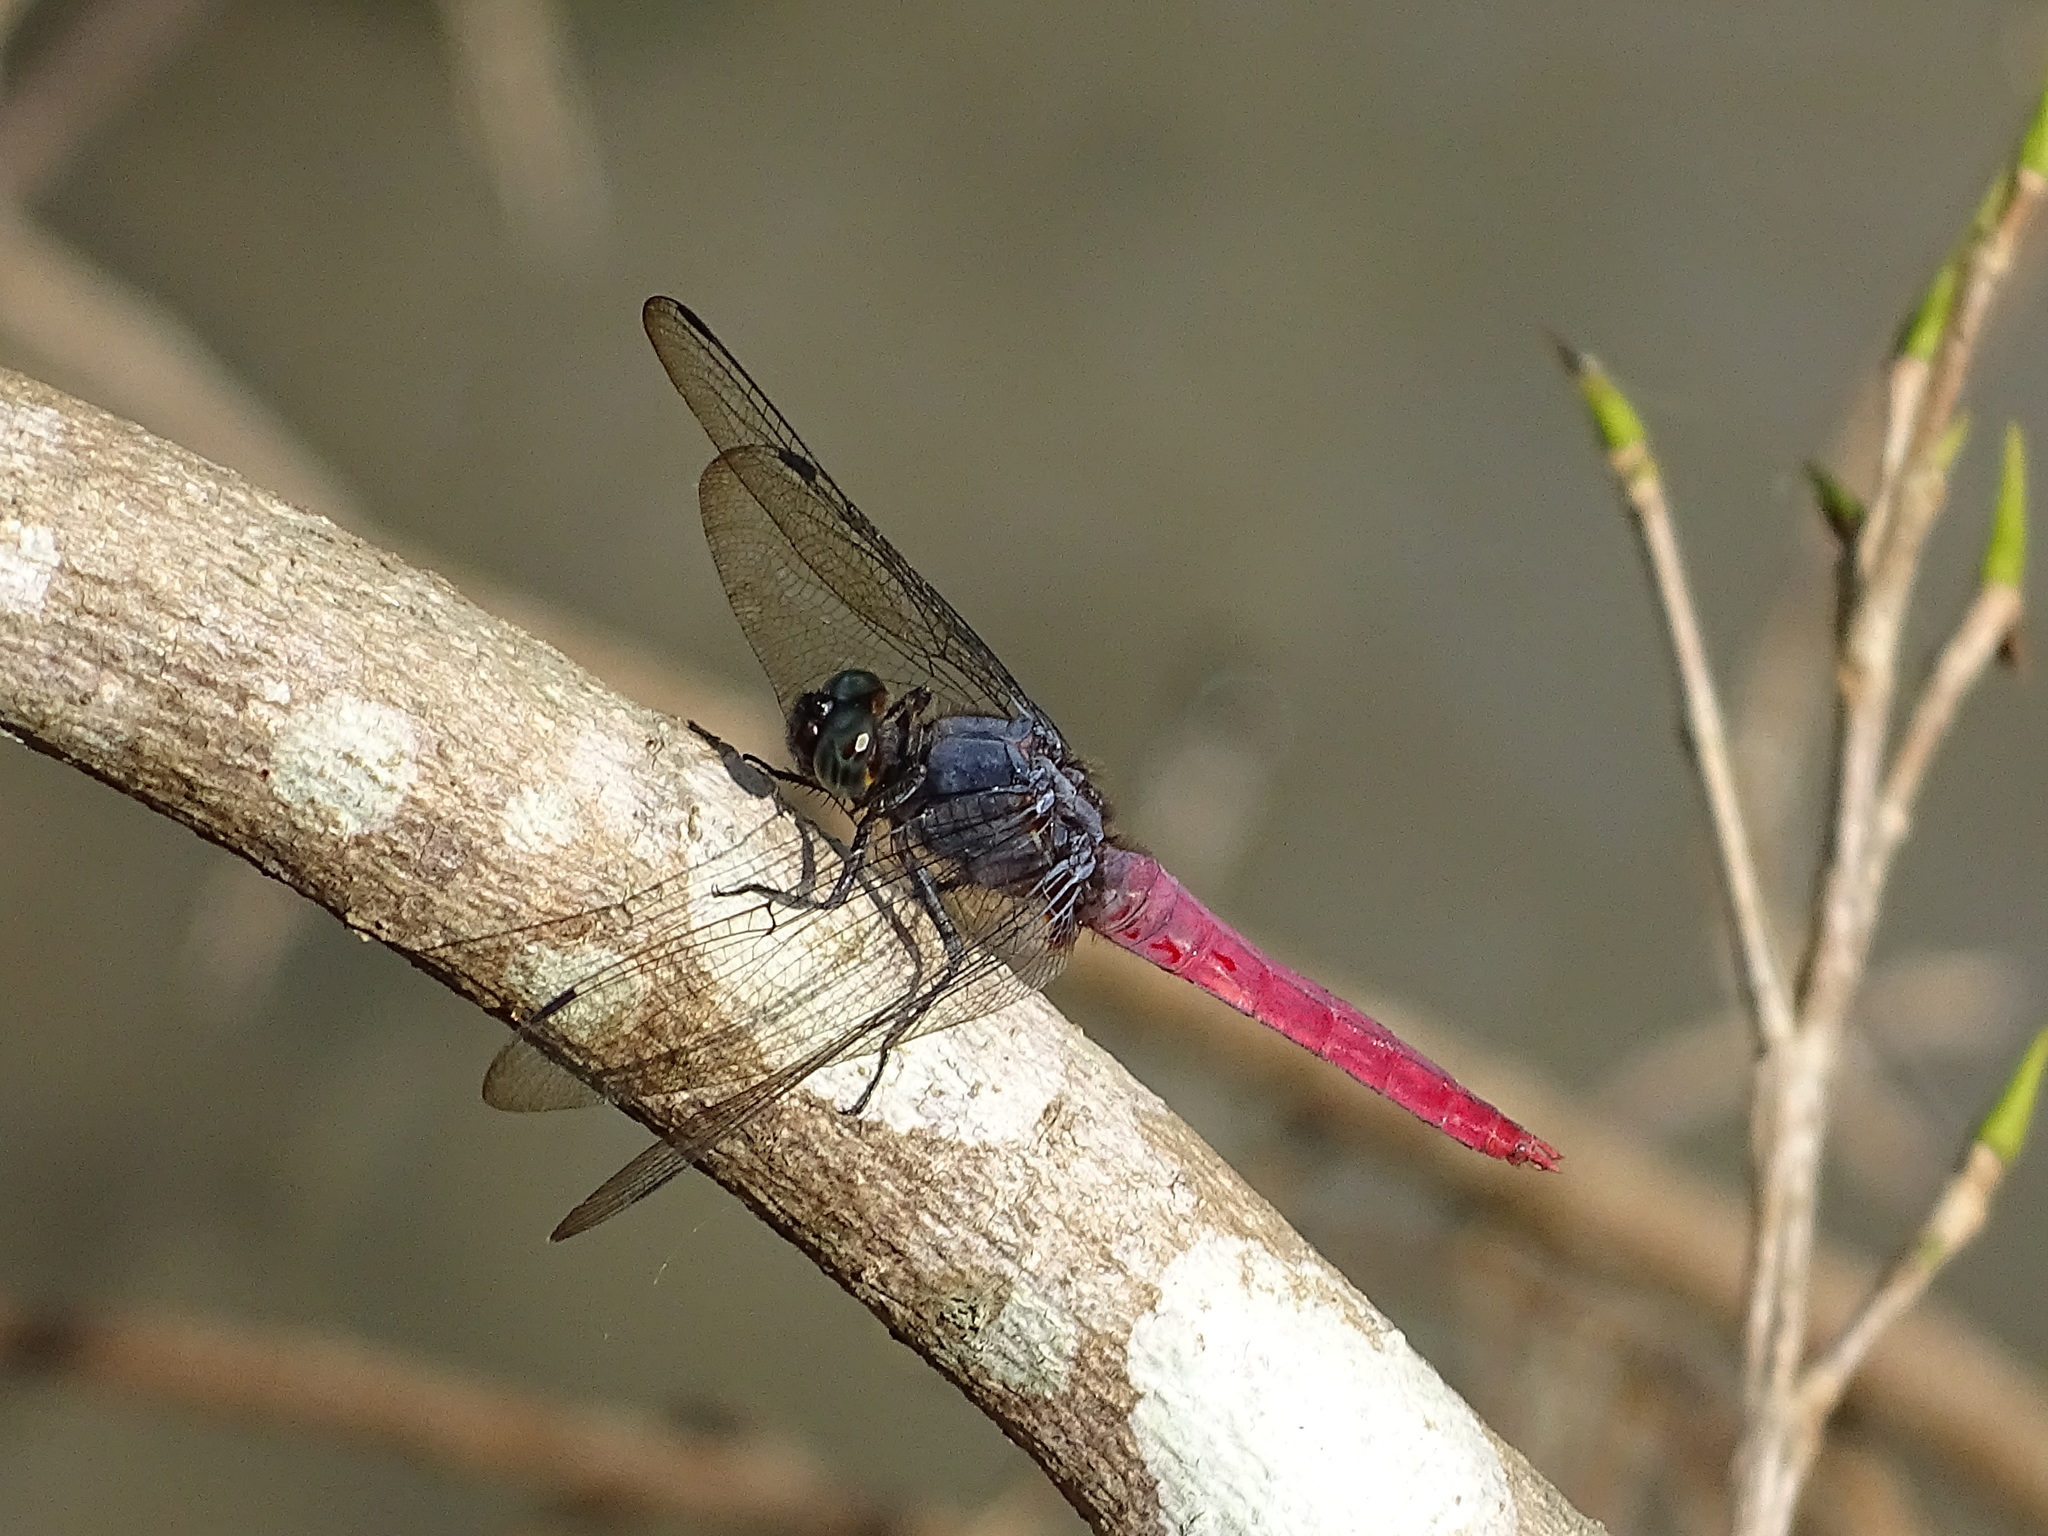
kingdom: Animalia
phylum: Arthropoda
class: Insecta
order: Odonata
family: Libellulidae
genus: Orthetrum
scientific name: Orthetrum pruinosum
